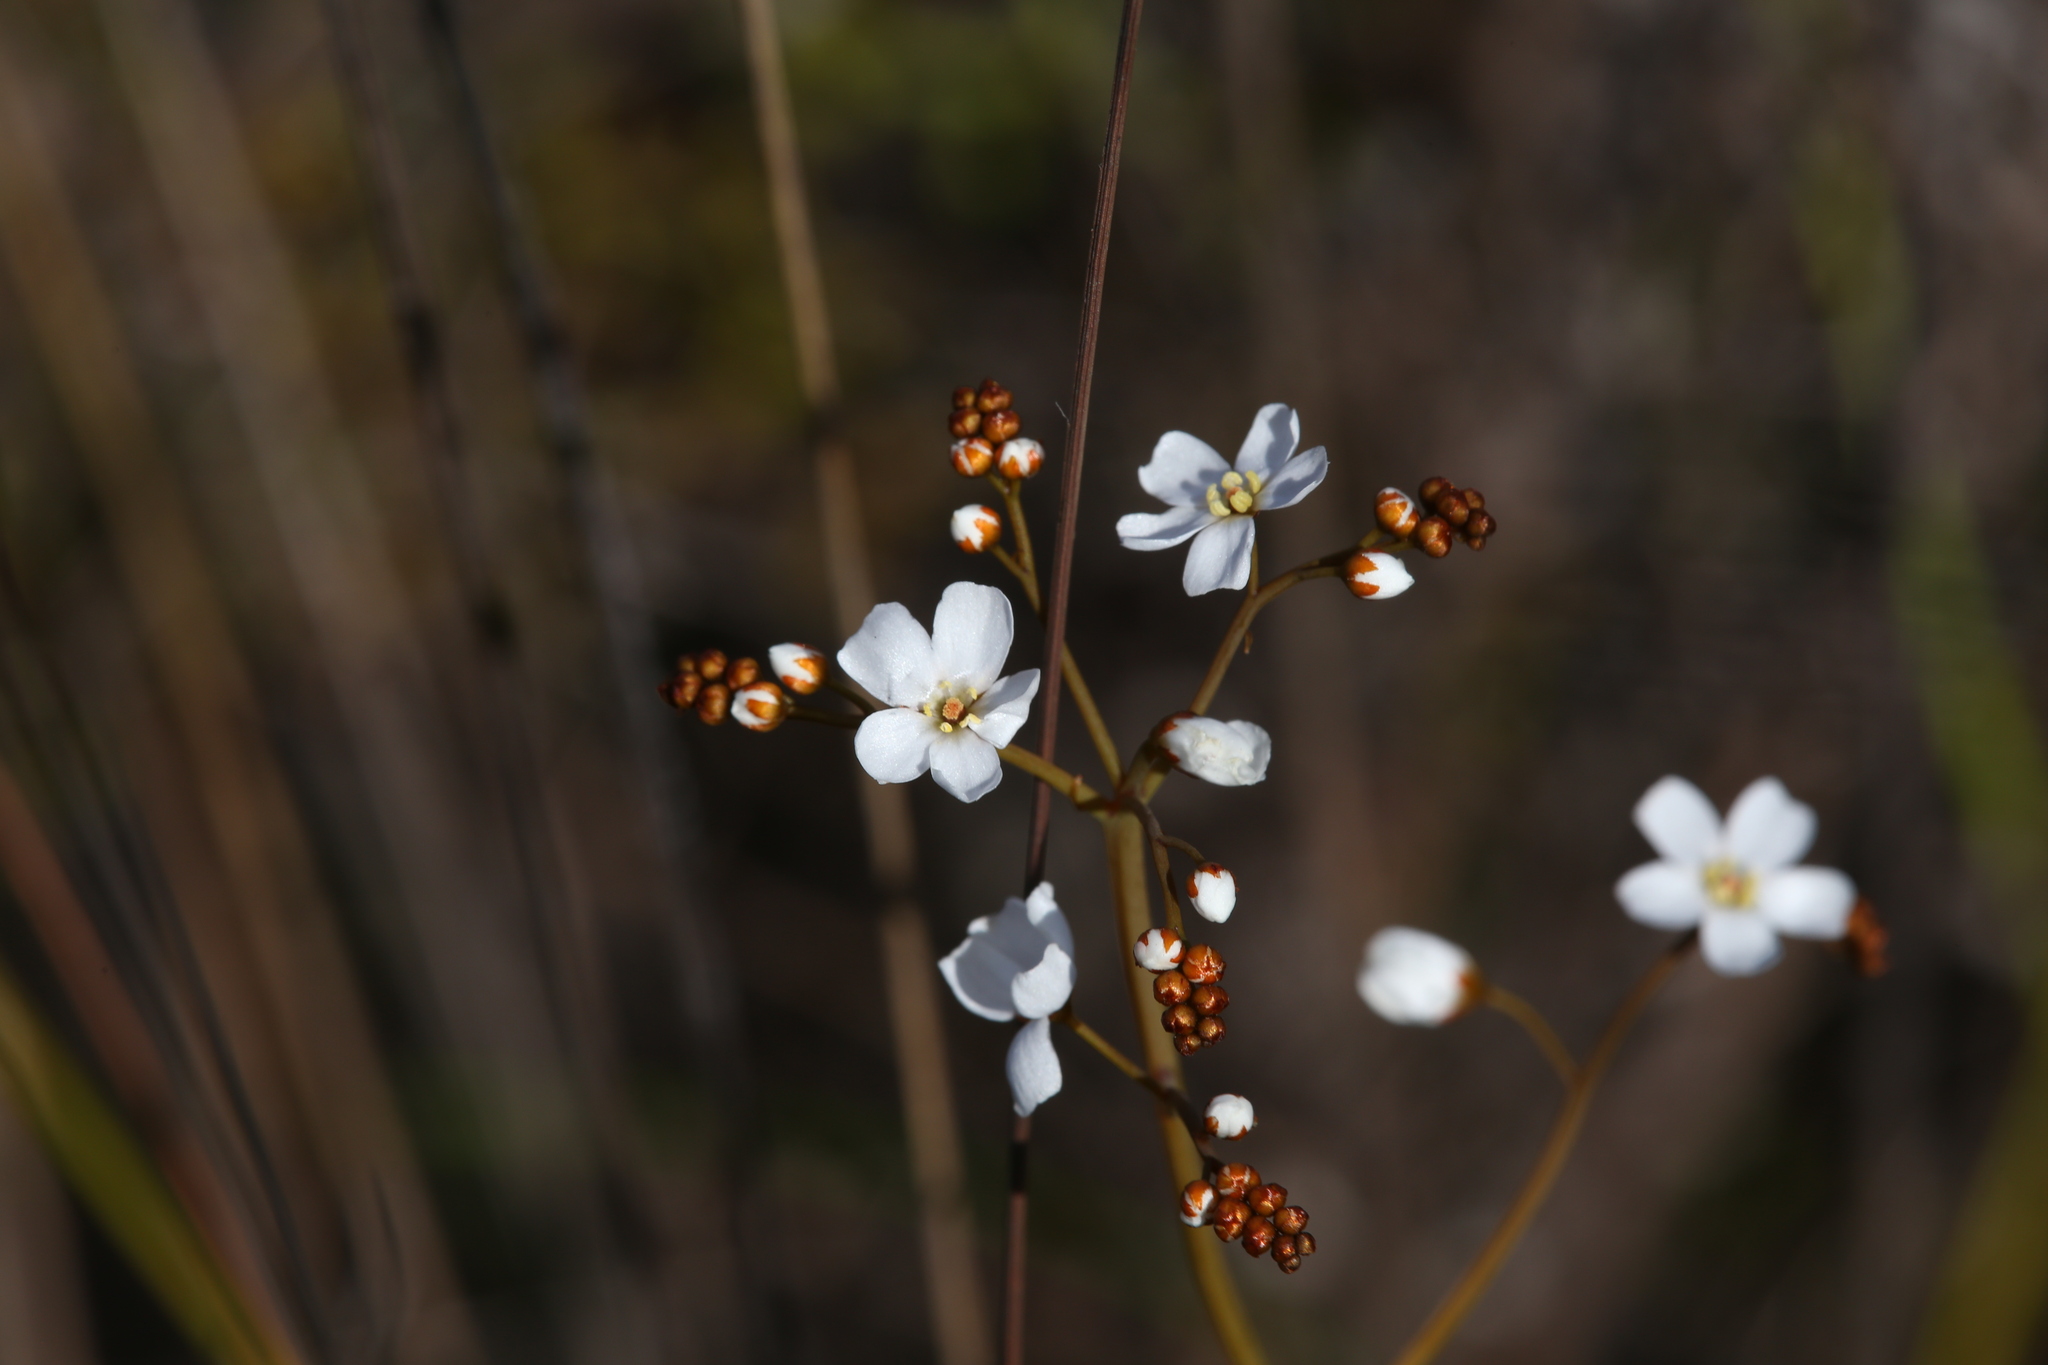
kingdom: Plantae
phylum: Tracheophyta
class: Magnoliopsida
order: Caryophyllales
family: Droseraceae
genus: Drosera
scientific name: Drosera gigantea
